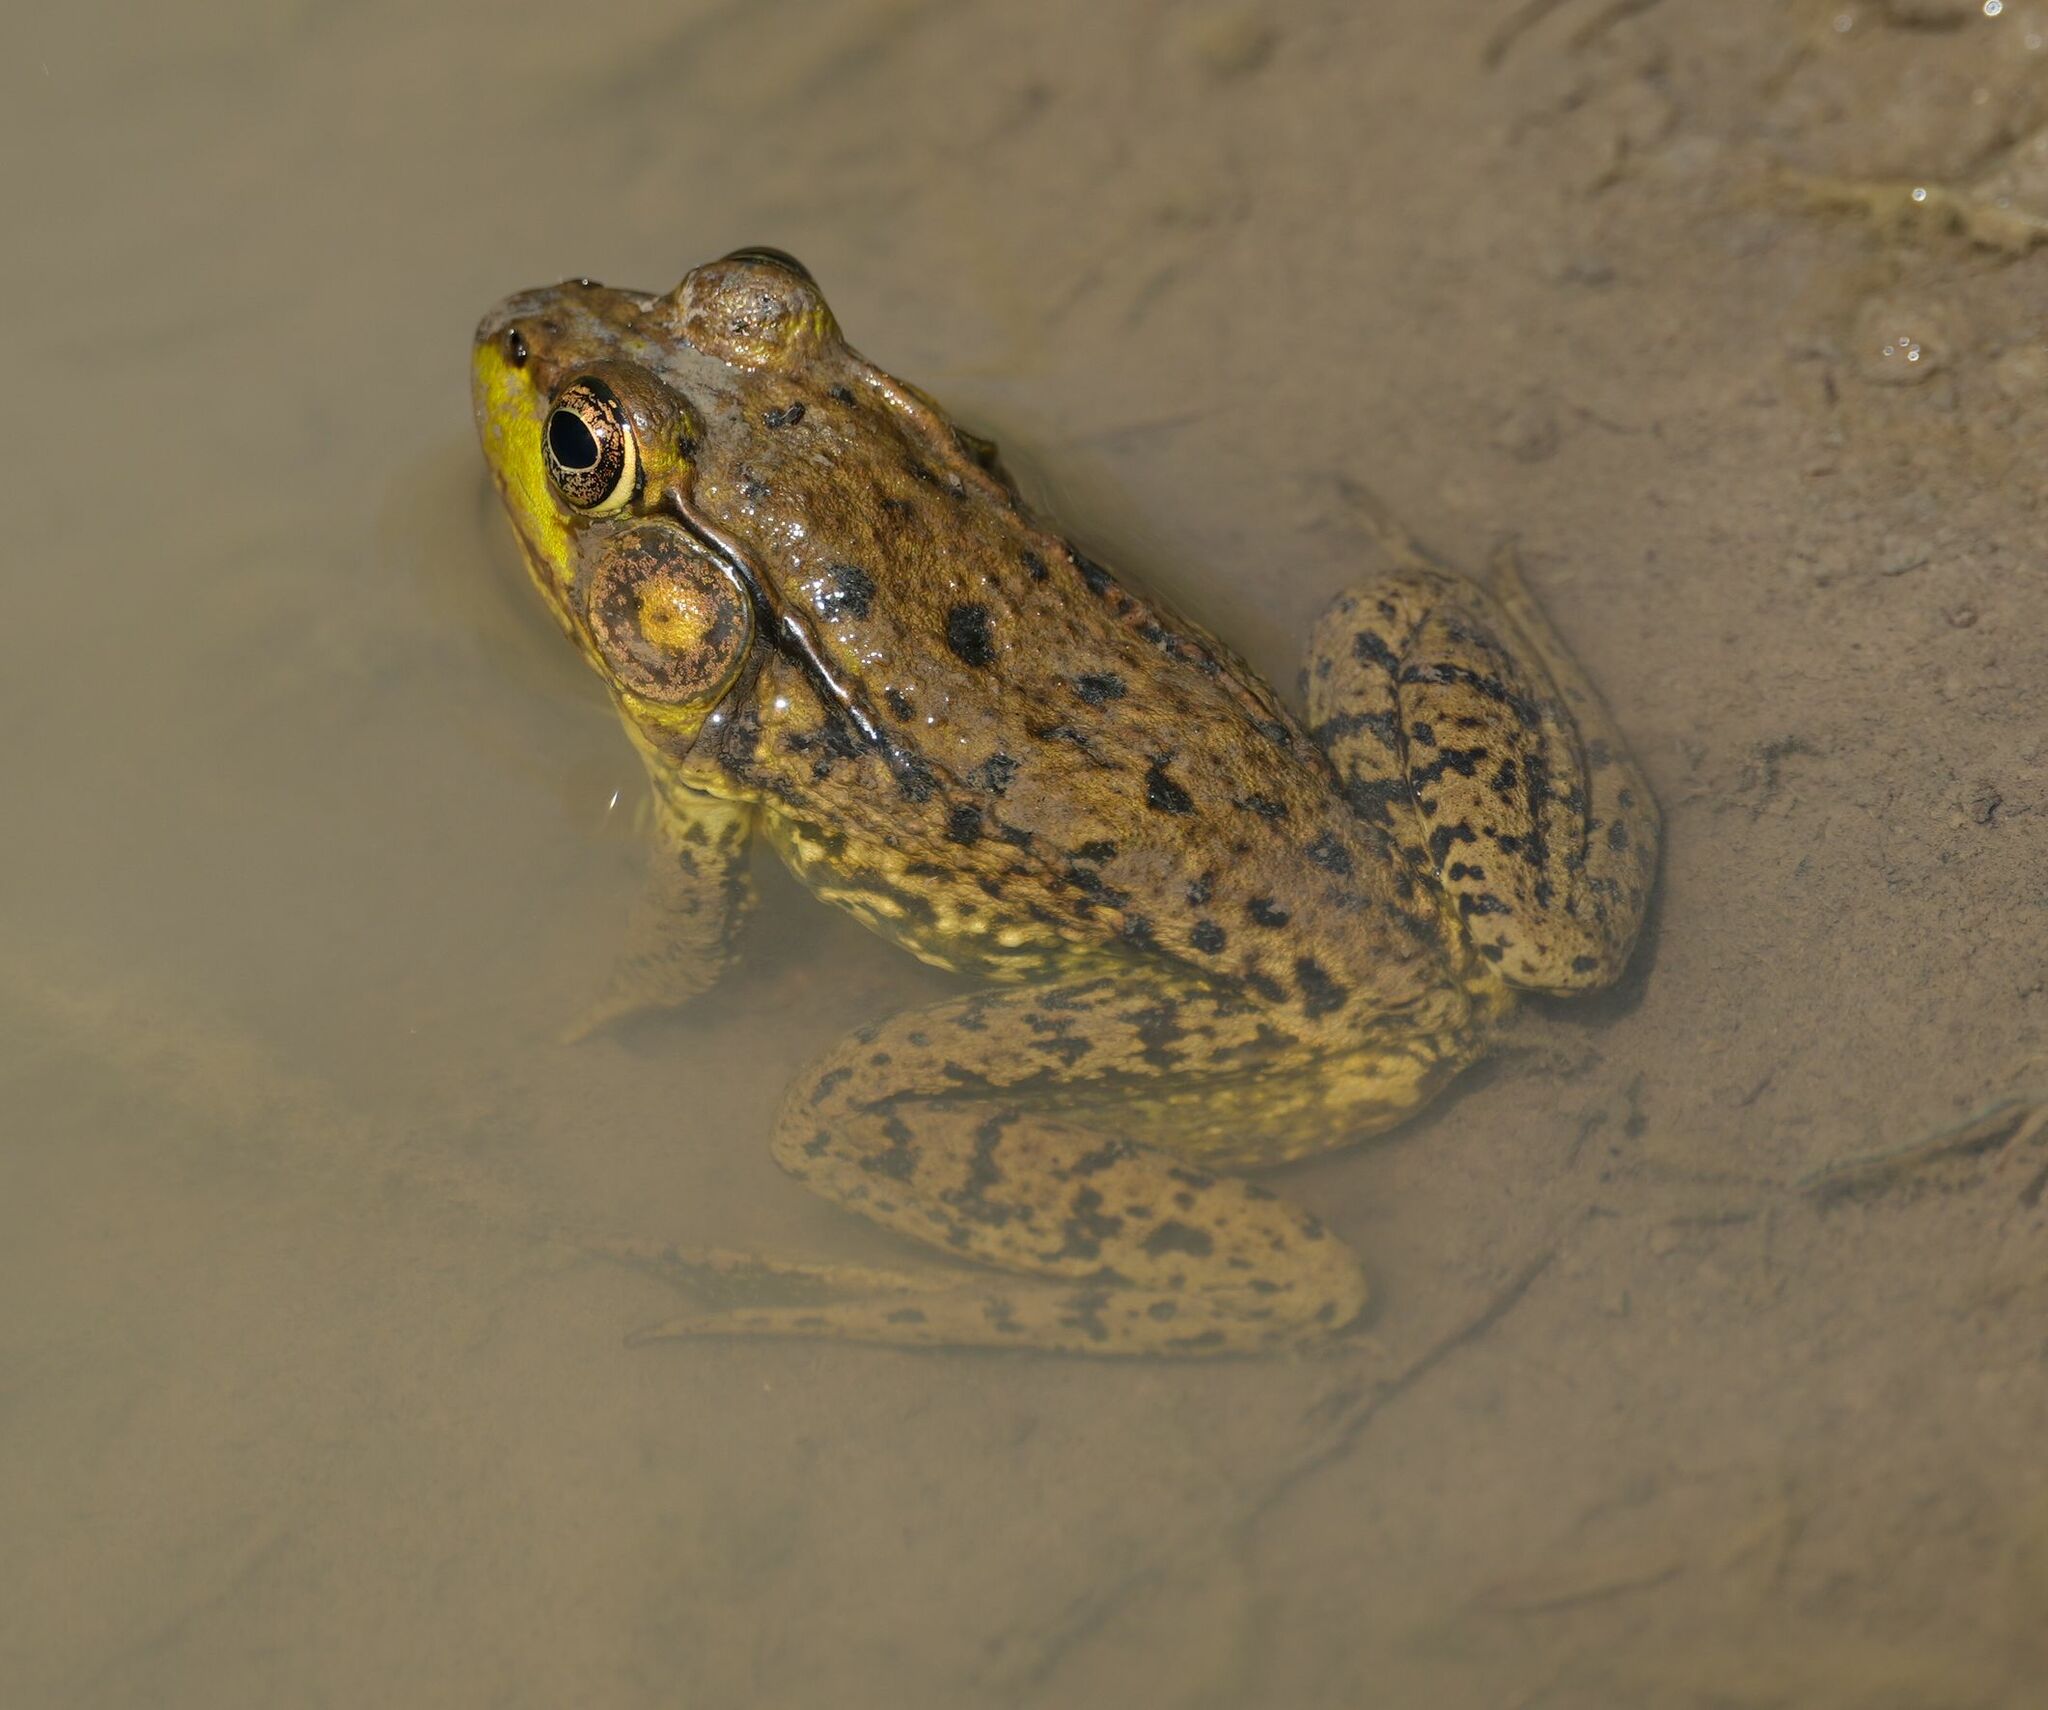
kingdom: Animalia
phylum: Chordata
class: Amphibia
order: Anura
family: Ranidae
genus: Lithobates
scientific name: Lithobates clamitans
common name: Green frog
